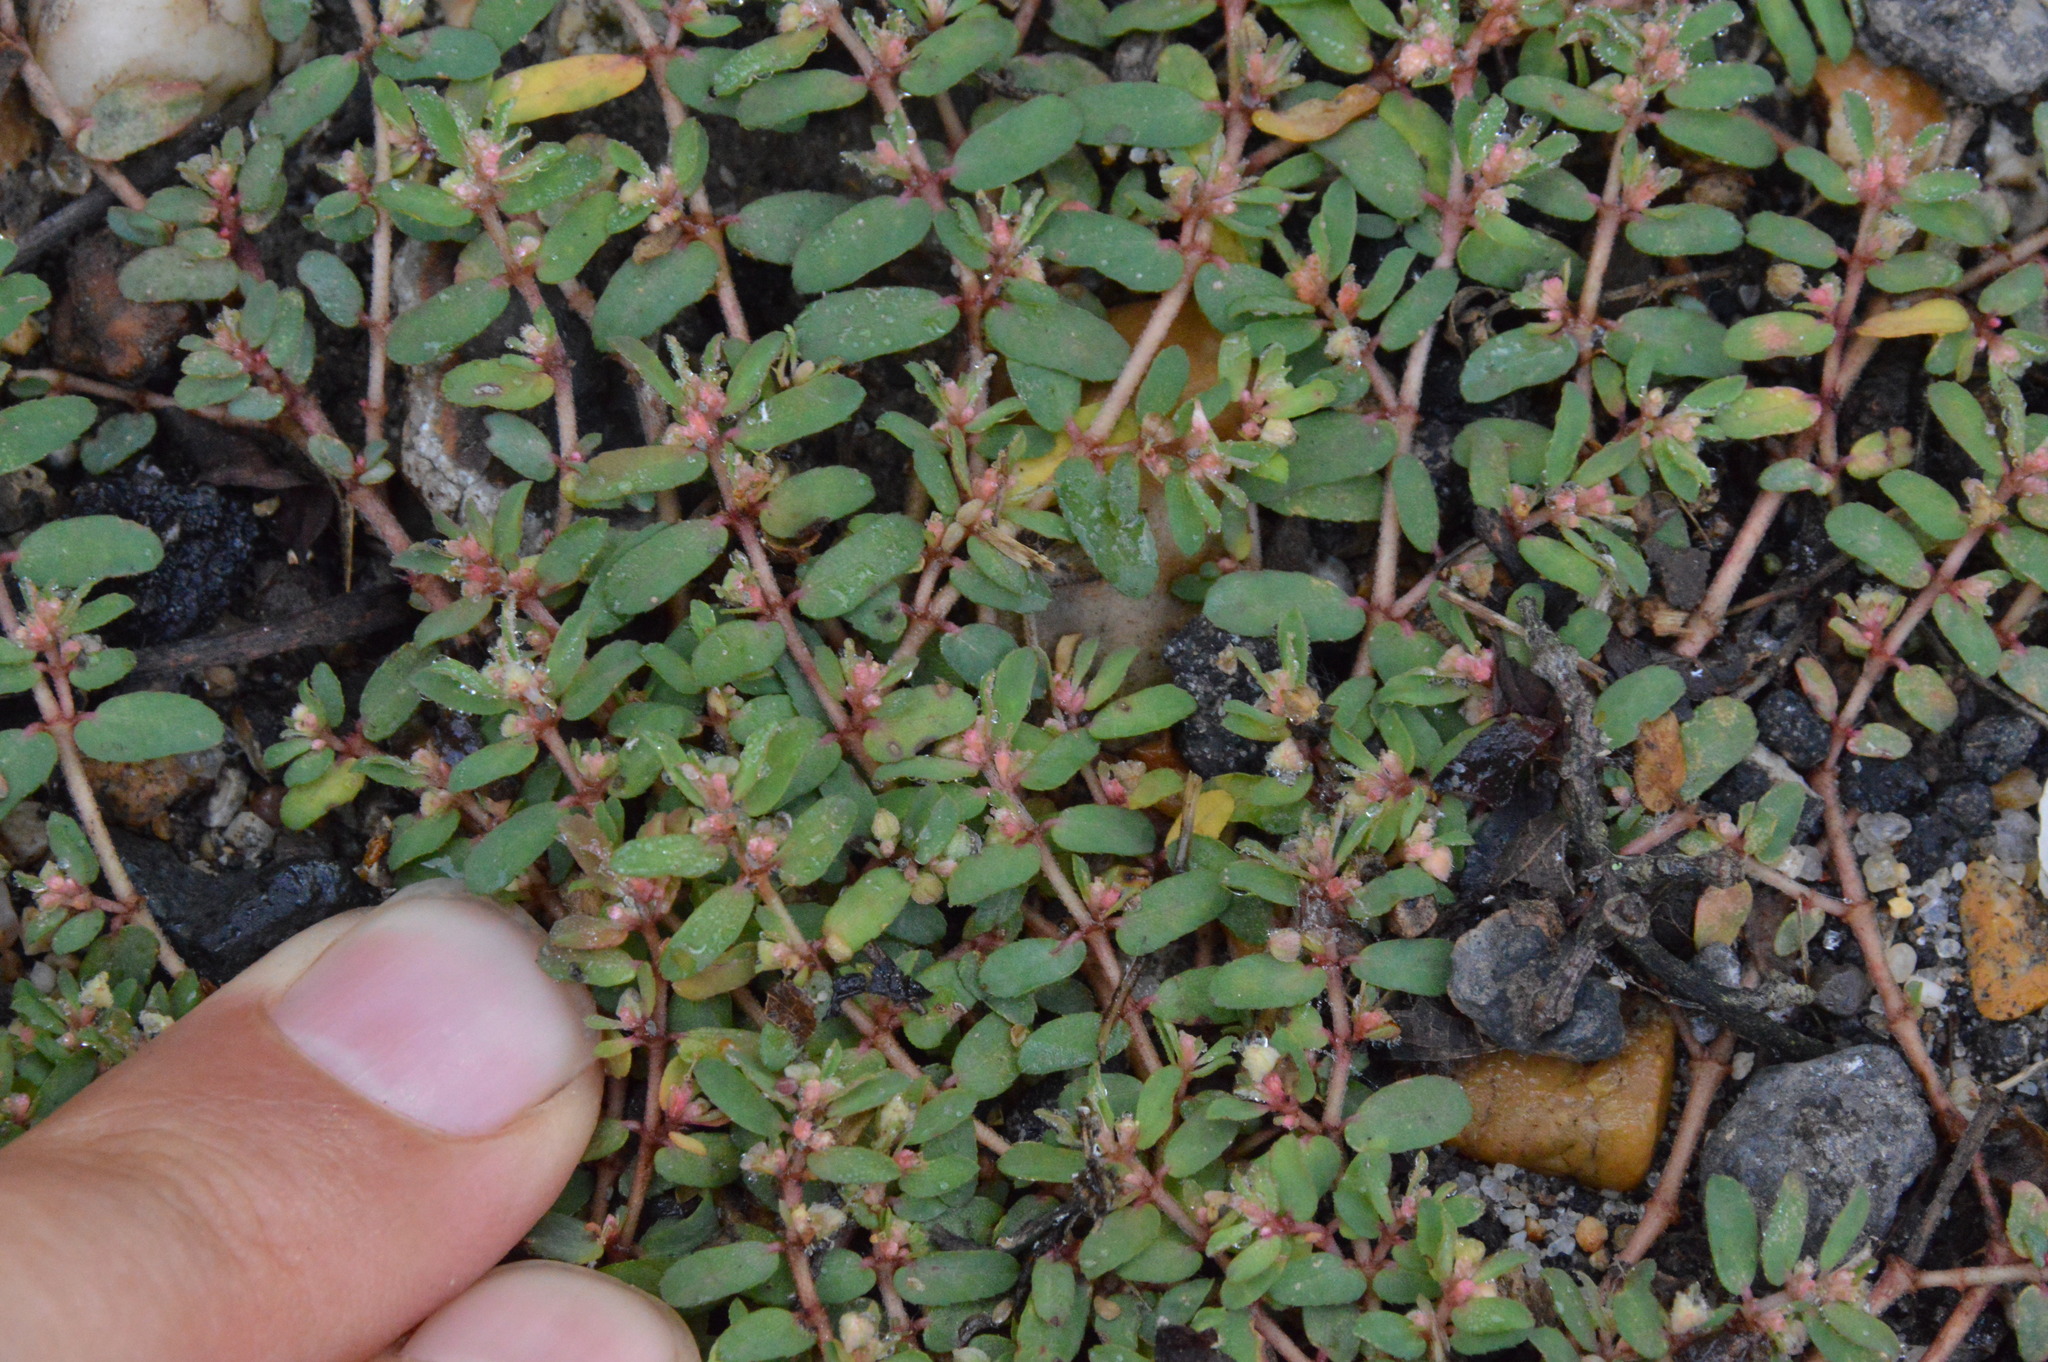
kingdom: Plantae
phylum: Tracheophyta
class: Magnoliopsida
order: Malpighiales
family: Euphorbiaceae
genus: Euphorbia
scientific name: Euphorbia maculata
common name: Spotted spurge
